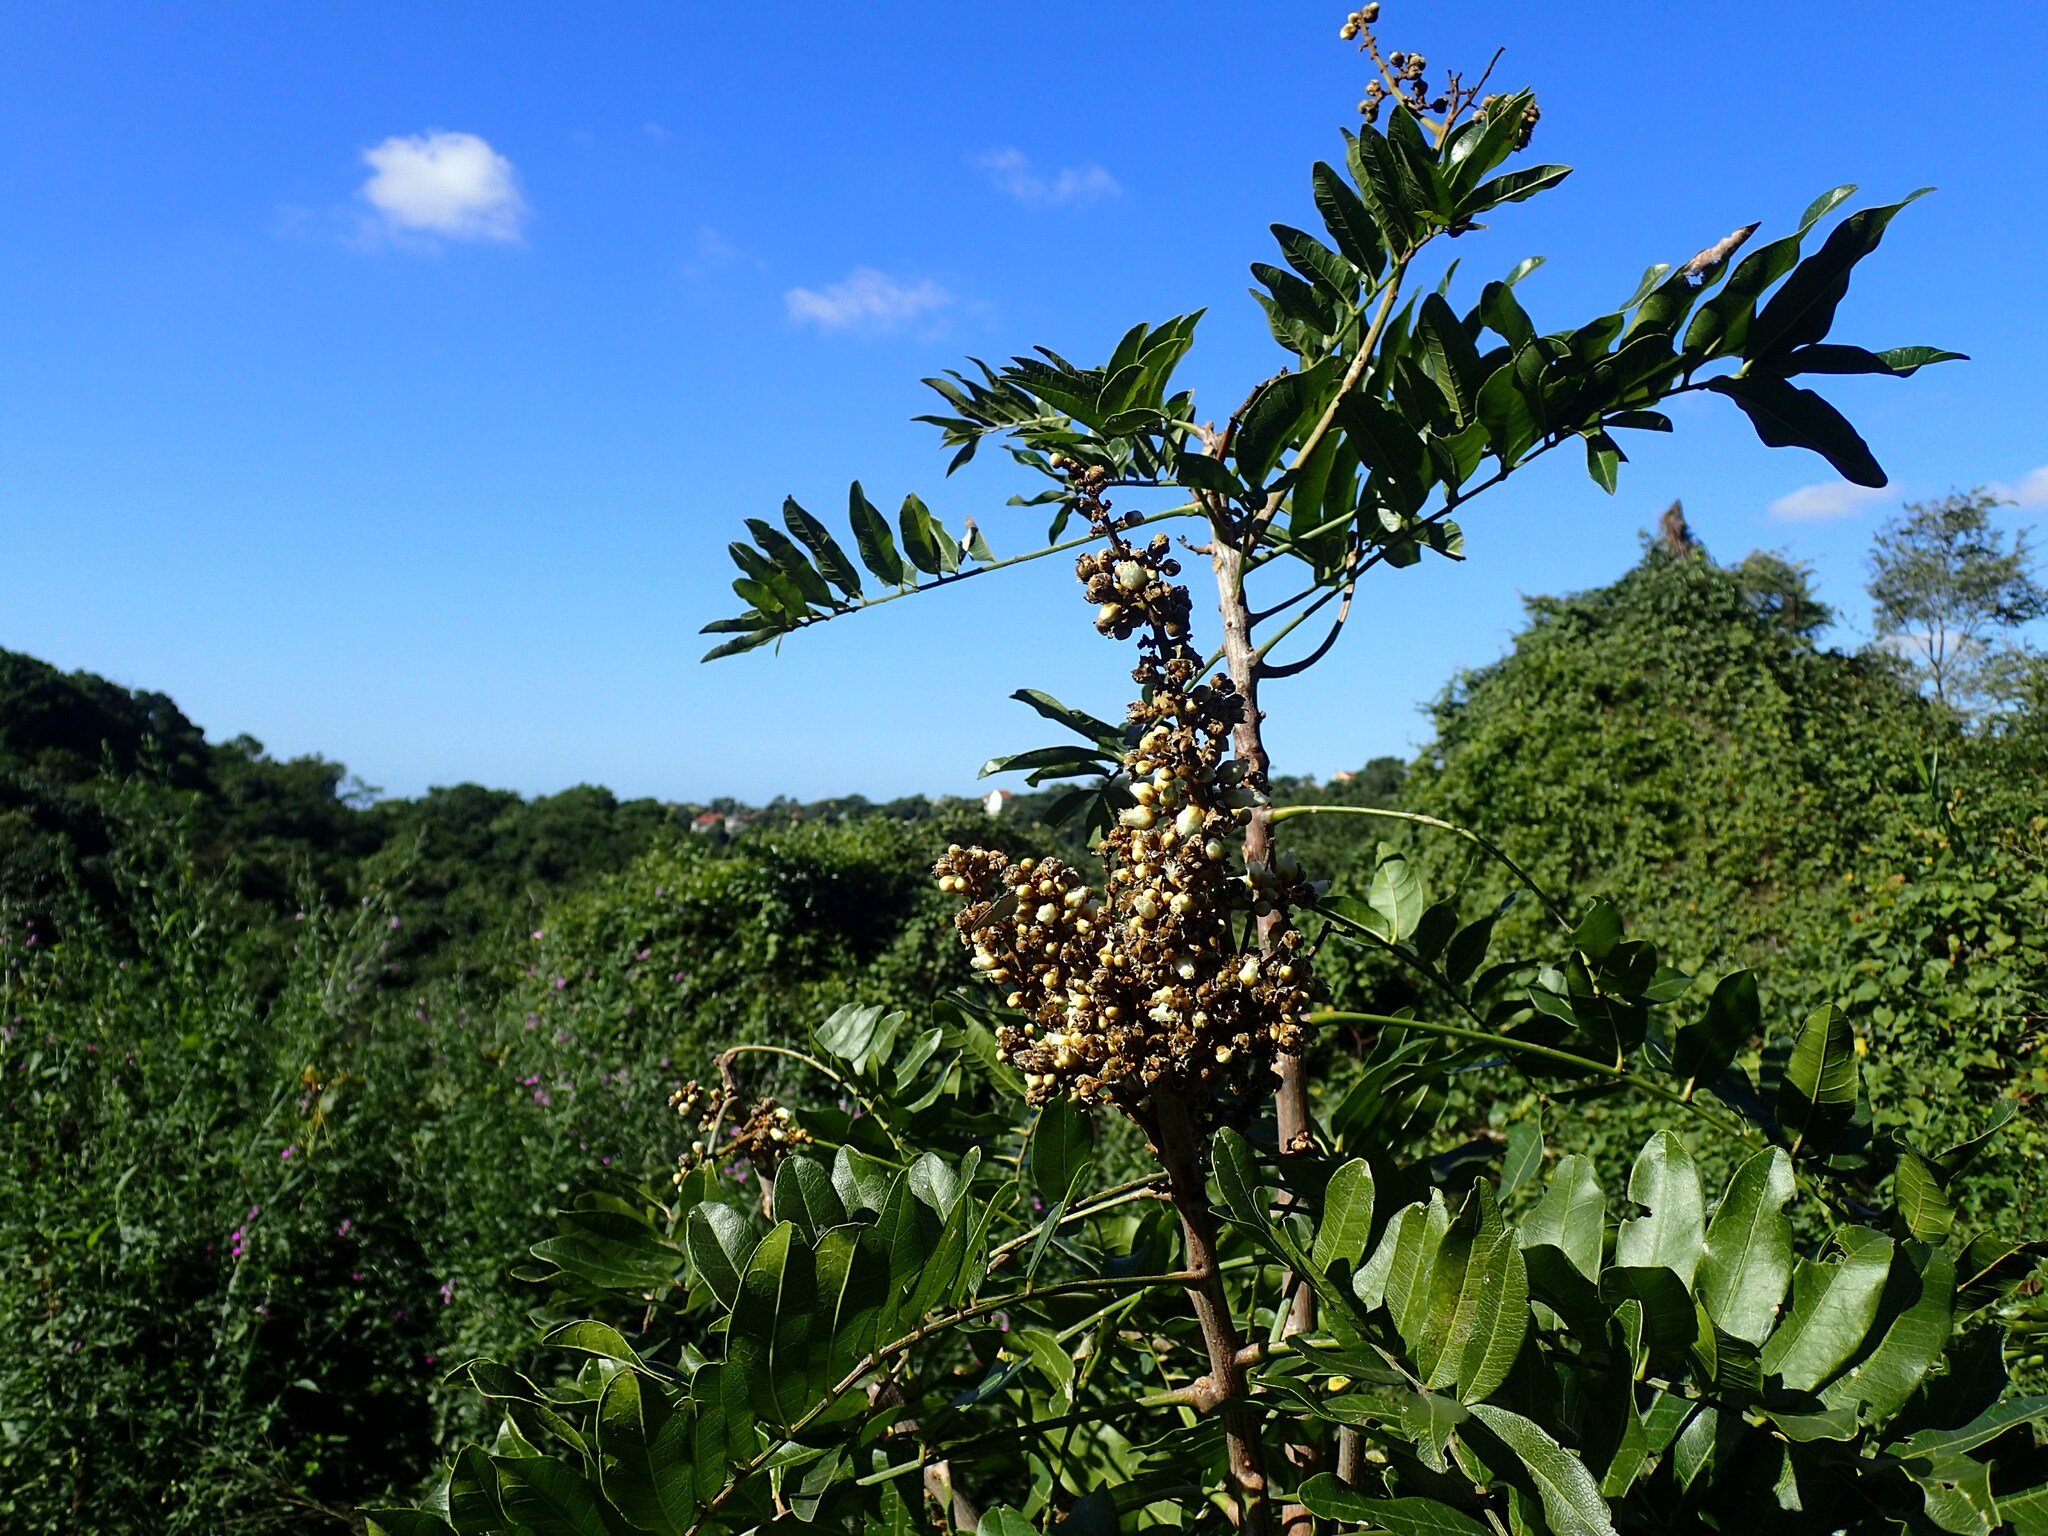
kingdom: Plantae
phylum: Tracheophyta
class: Magnoliopsida
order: Sapindales
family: Sapindaceae
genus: Deinbollia
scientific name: Deinbollia oblongifolia
